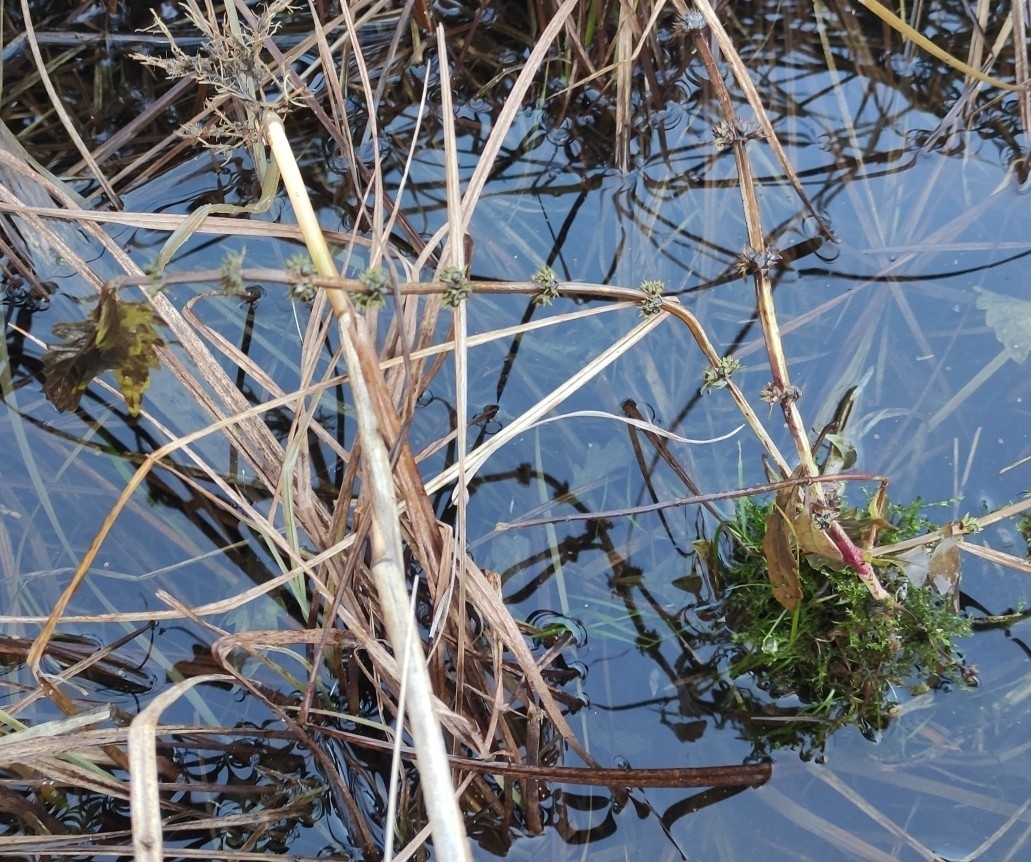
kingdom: Plantae
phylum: Tracheophyta
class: Magnoliopsida
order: Lamiales
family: Lamiaceae
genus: Lycopus
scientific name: Lycopus europaeus
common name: European bugleweed
